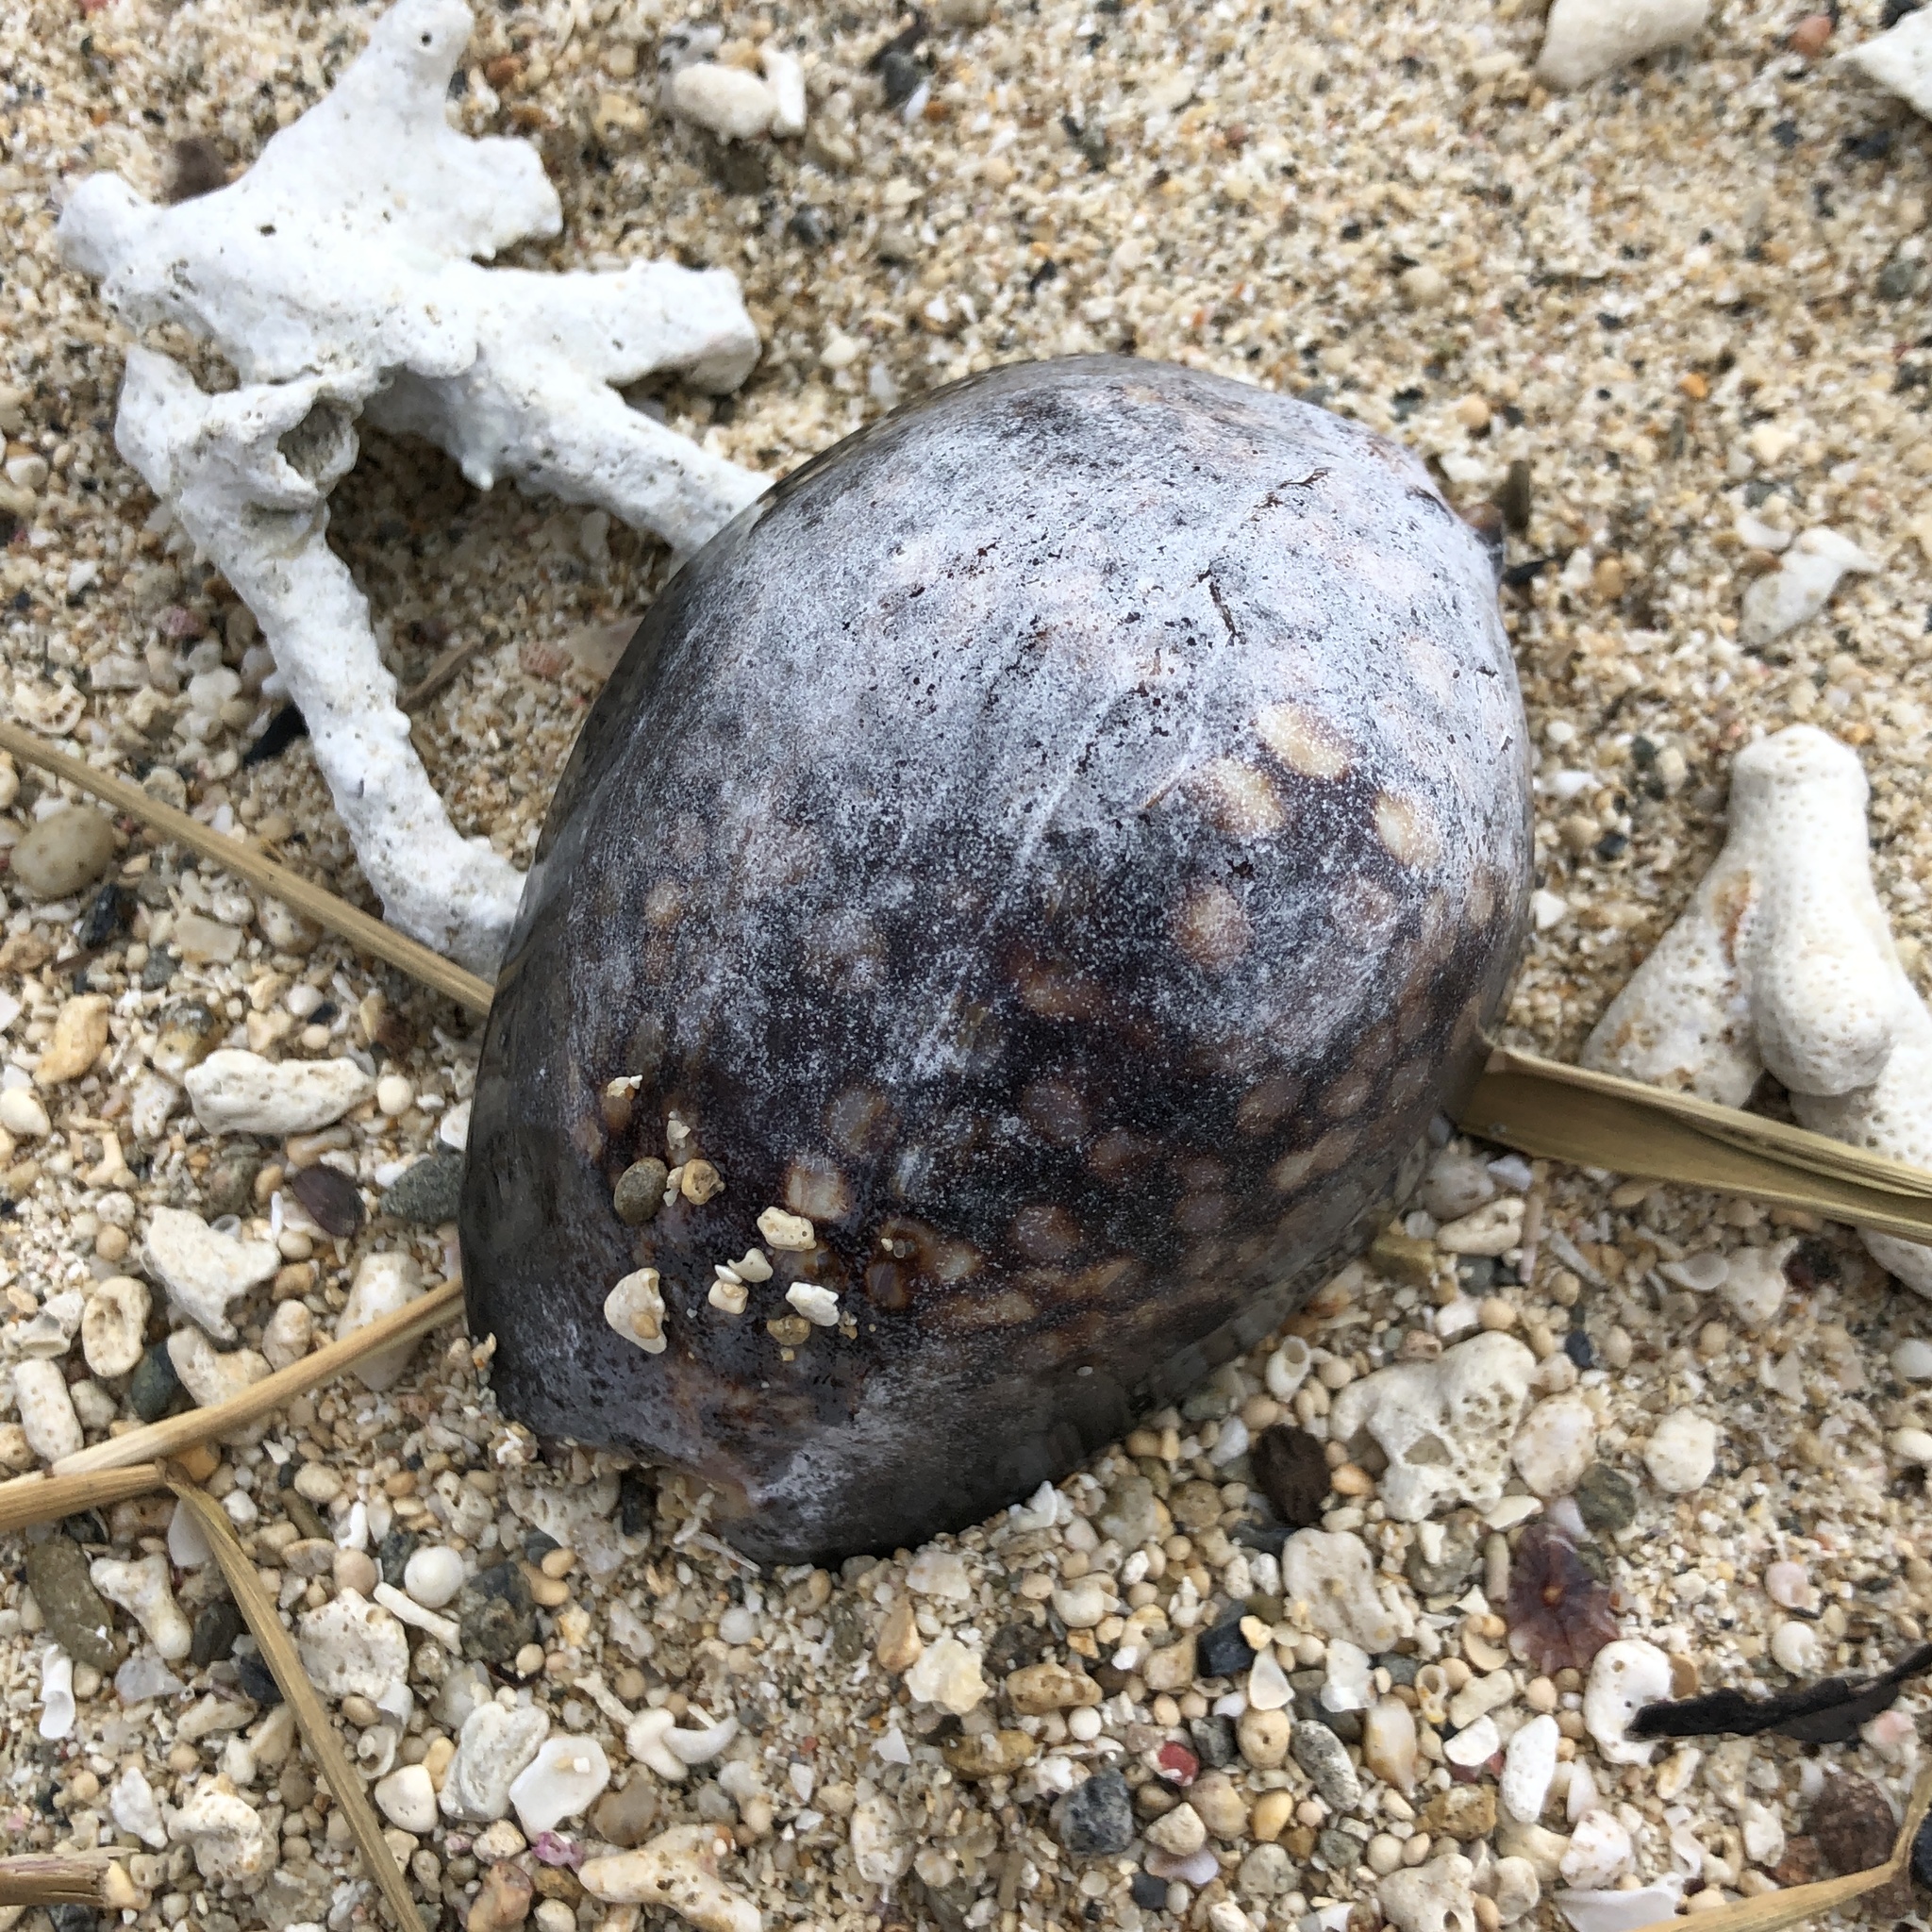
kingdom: Animalia
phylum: Mollusca
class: Gastropoda
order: Littorinimorpha
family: Cypraeidae
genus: Mauritia
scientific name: Mauritia mauritiana
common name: Hump-backed cowrie
